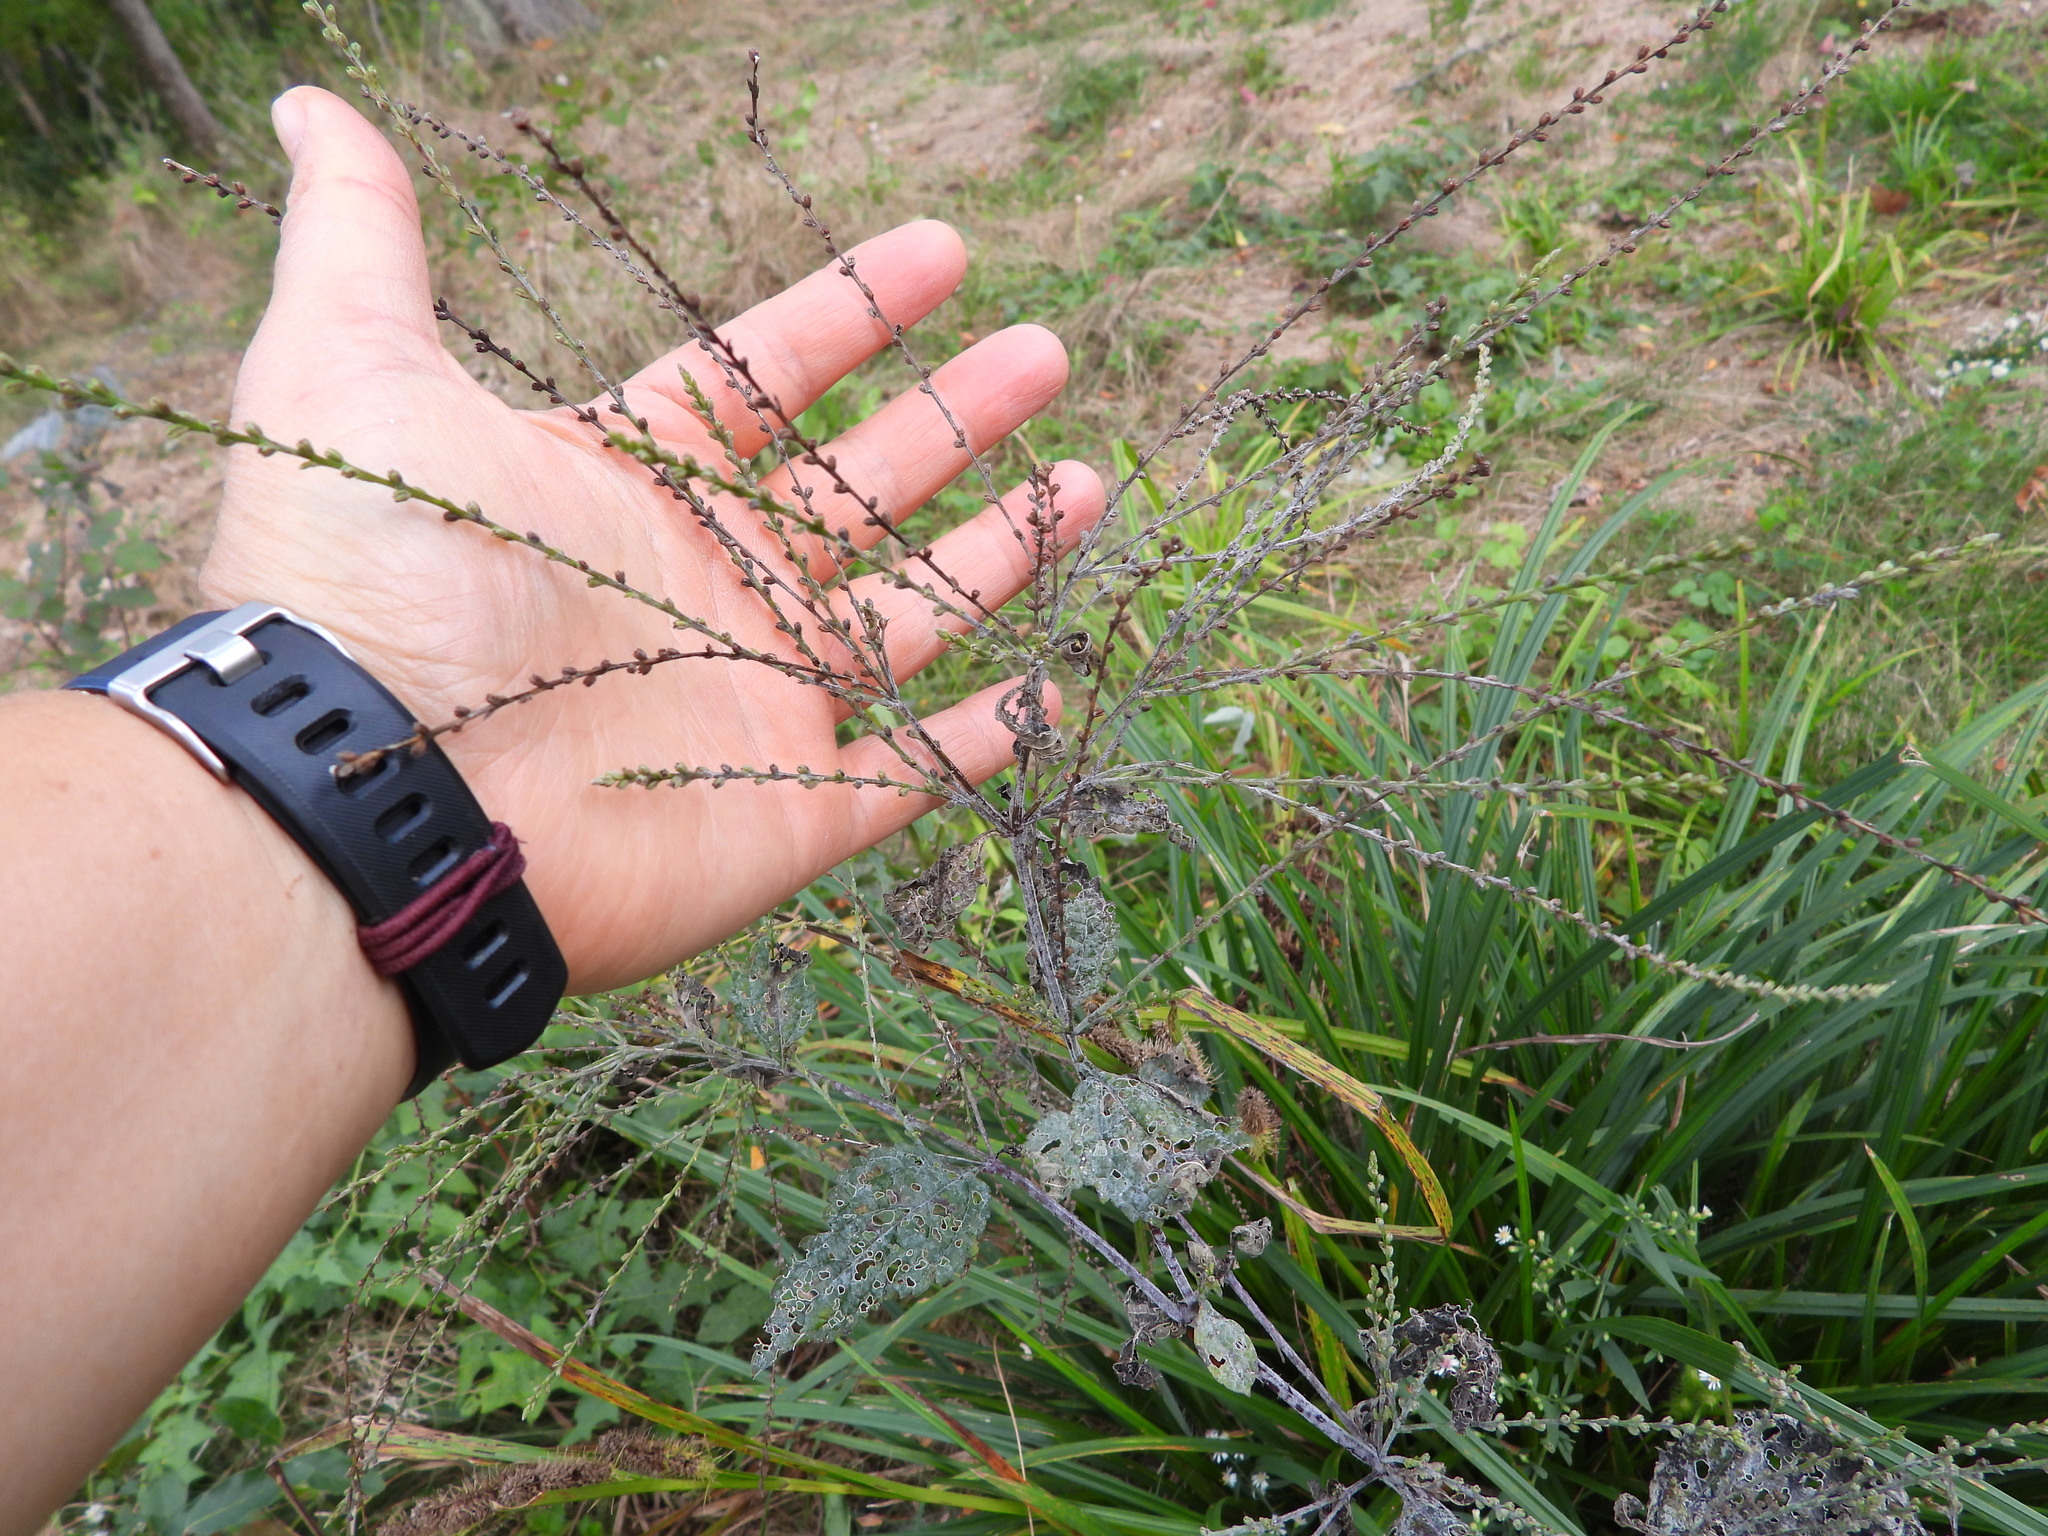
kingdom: Plantae
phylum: Tracheophyta
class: Magnoliopsida
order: Lamiales
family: Verbenaceae
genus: Verbena
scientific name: Verbena urticifolia
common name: Nettle-leaved vervain
